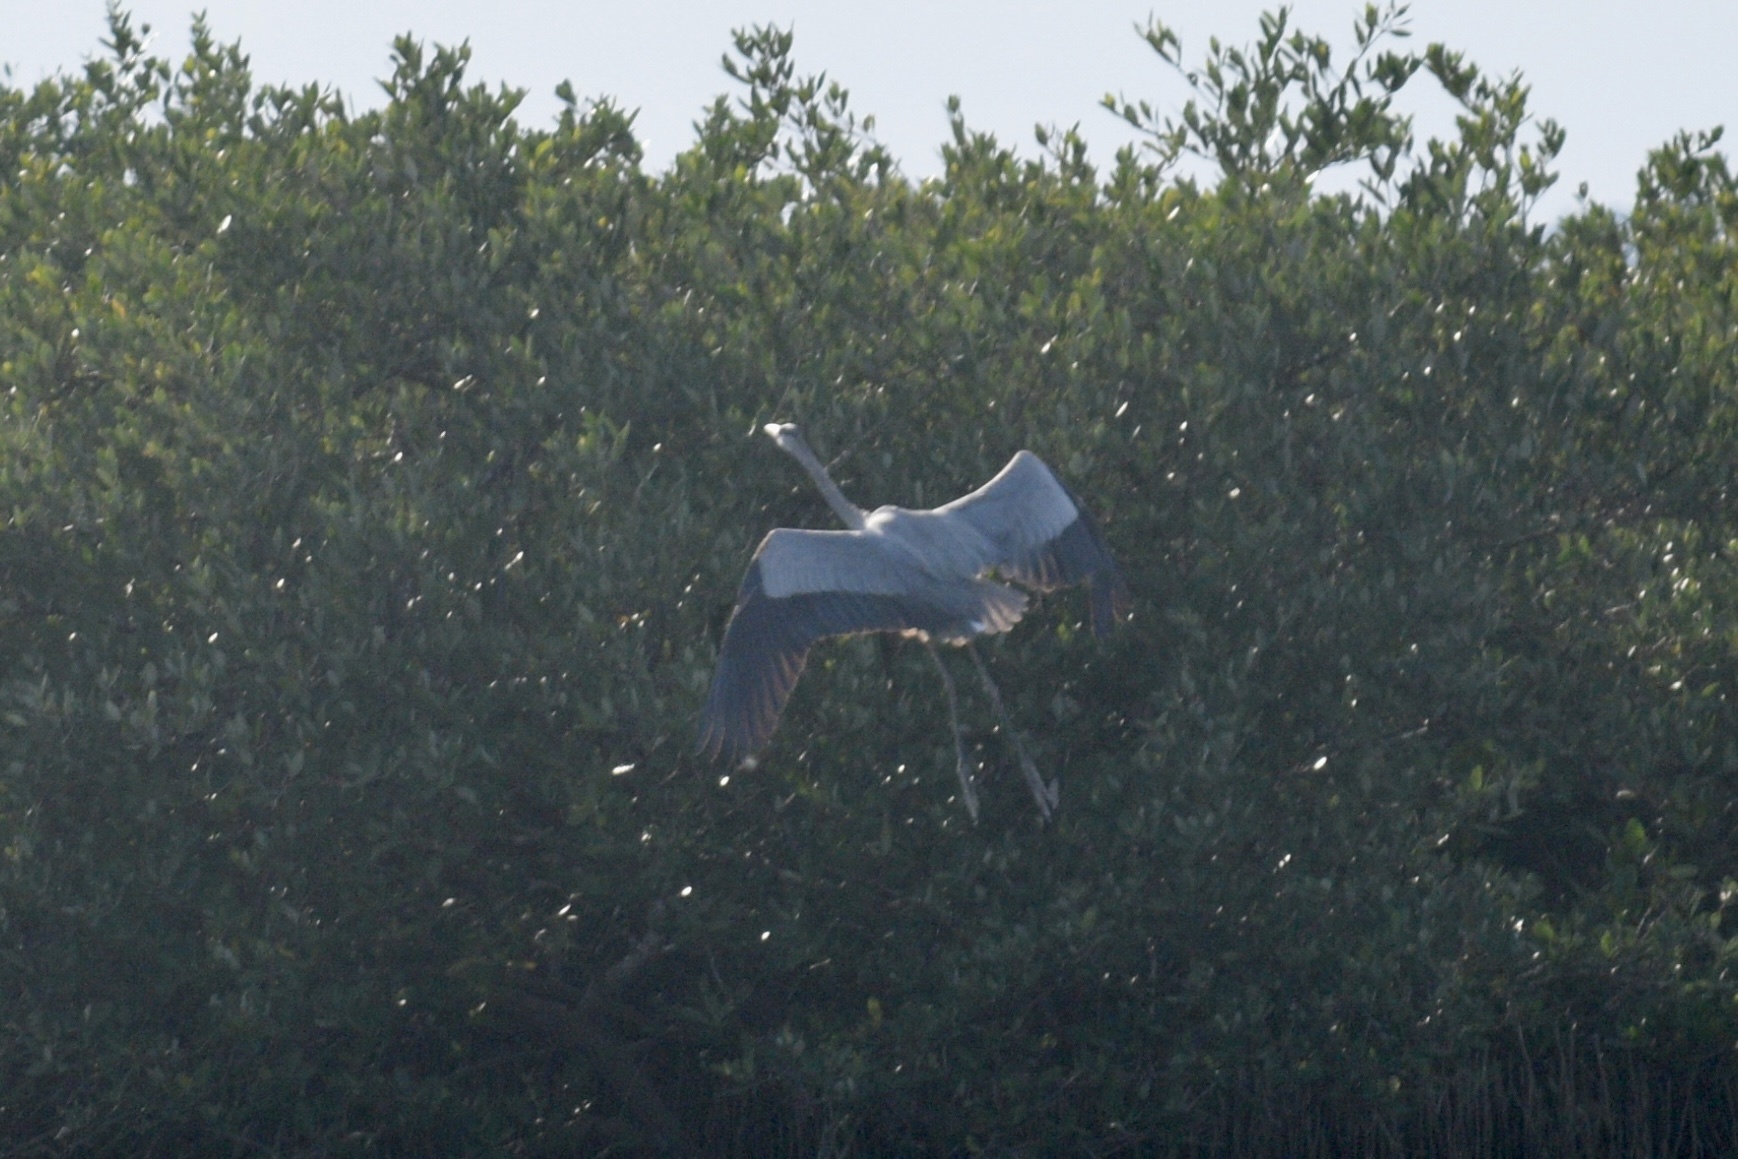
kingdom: Animalia
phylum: Chordata
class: Aves
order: Pelecaniformes
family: Ardeidae
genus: Ardea
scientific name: Ardea herodias
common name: Great blue heron
